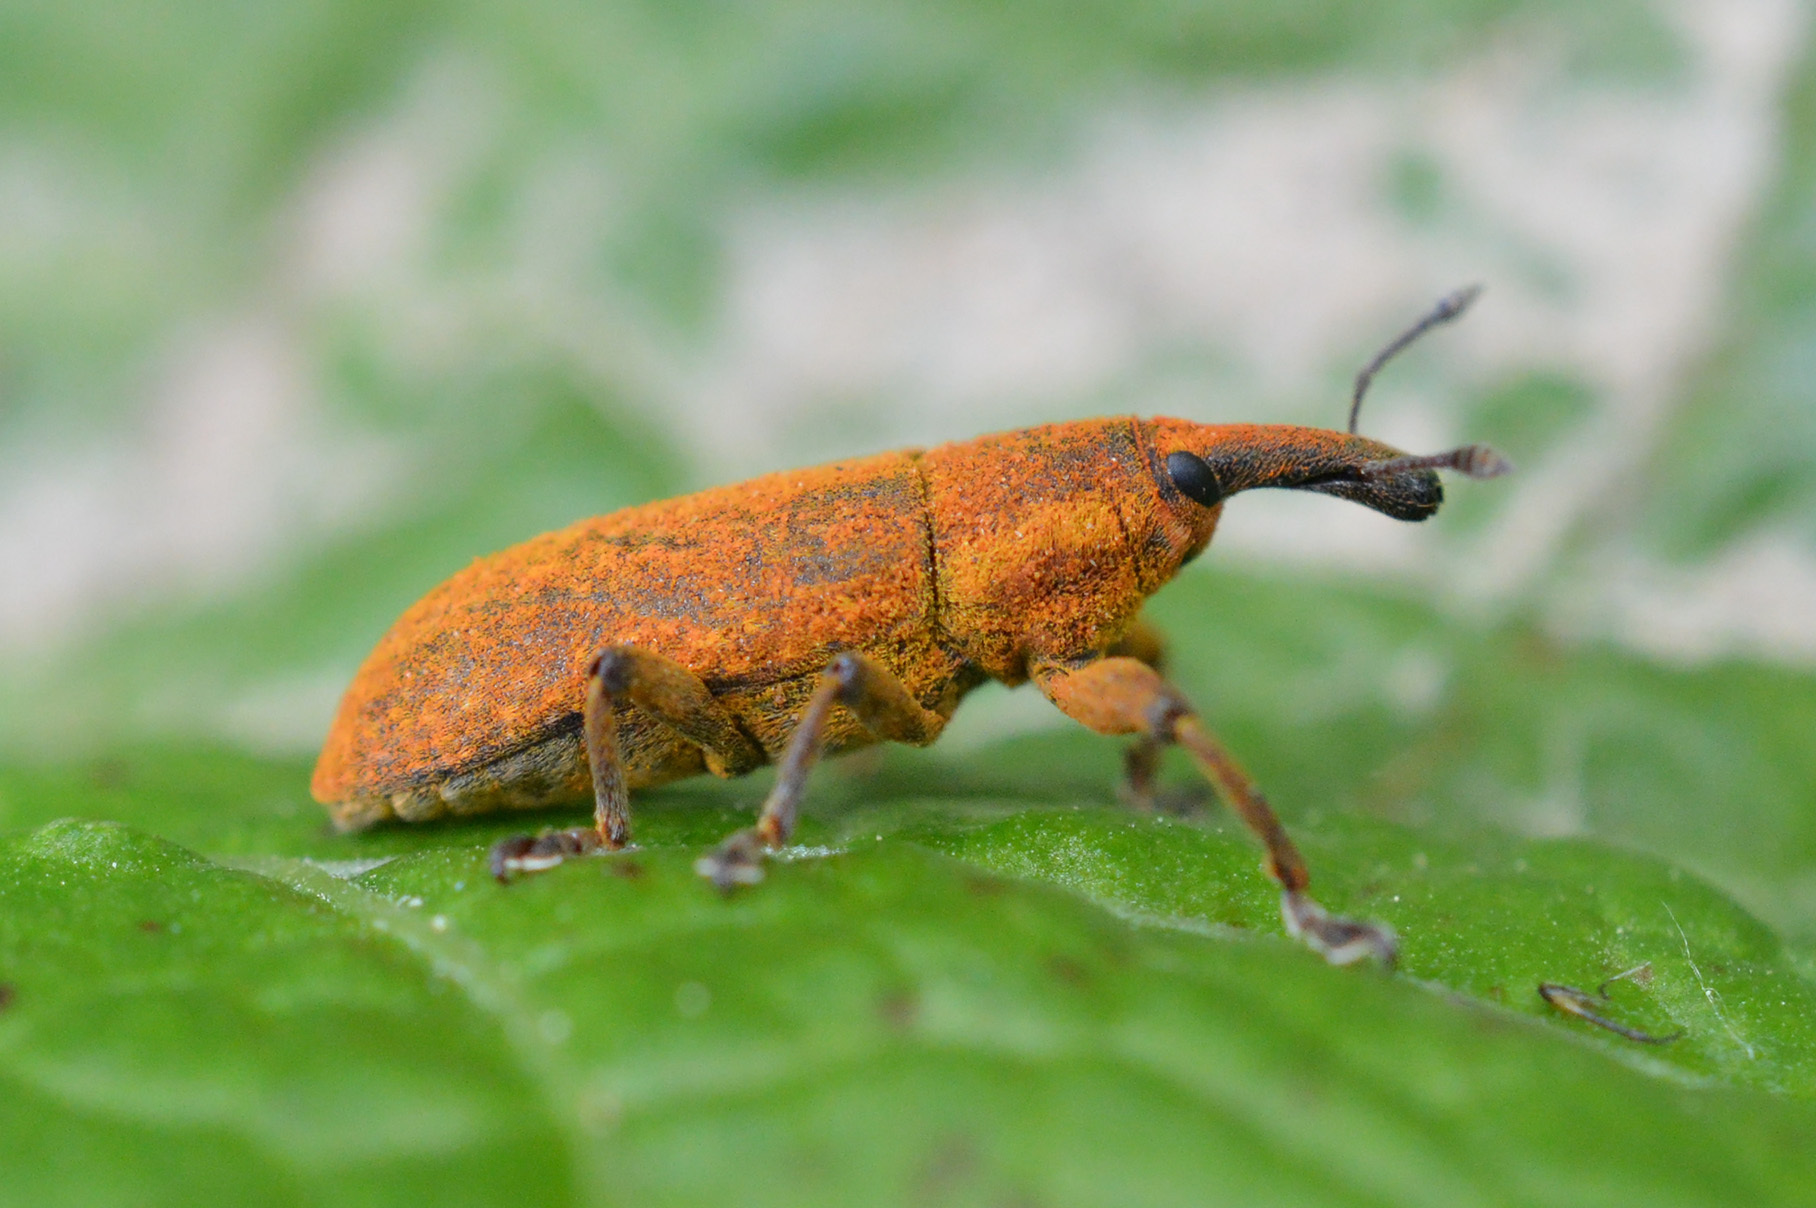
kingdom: Animalia
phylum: Arthropoda
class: Insecta
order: Coleoptera
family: Curculionidae
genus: Lixus
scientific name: Lixus bardanae
